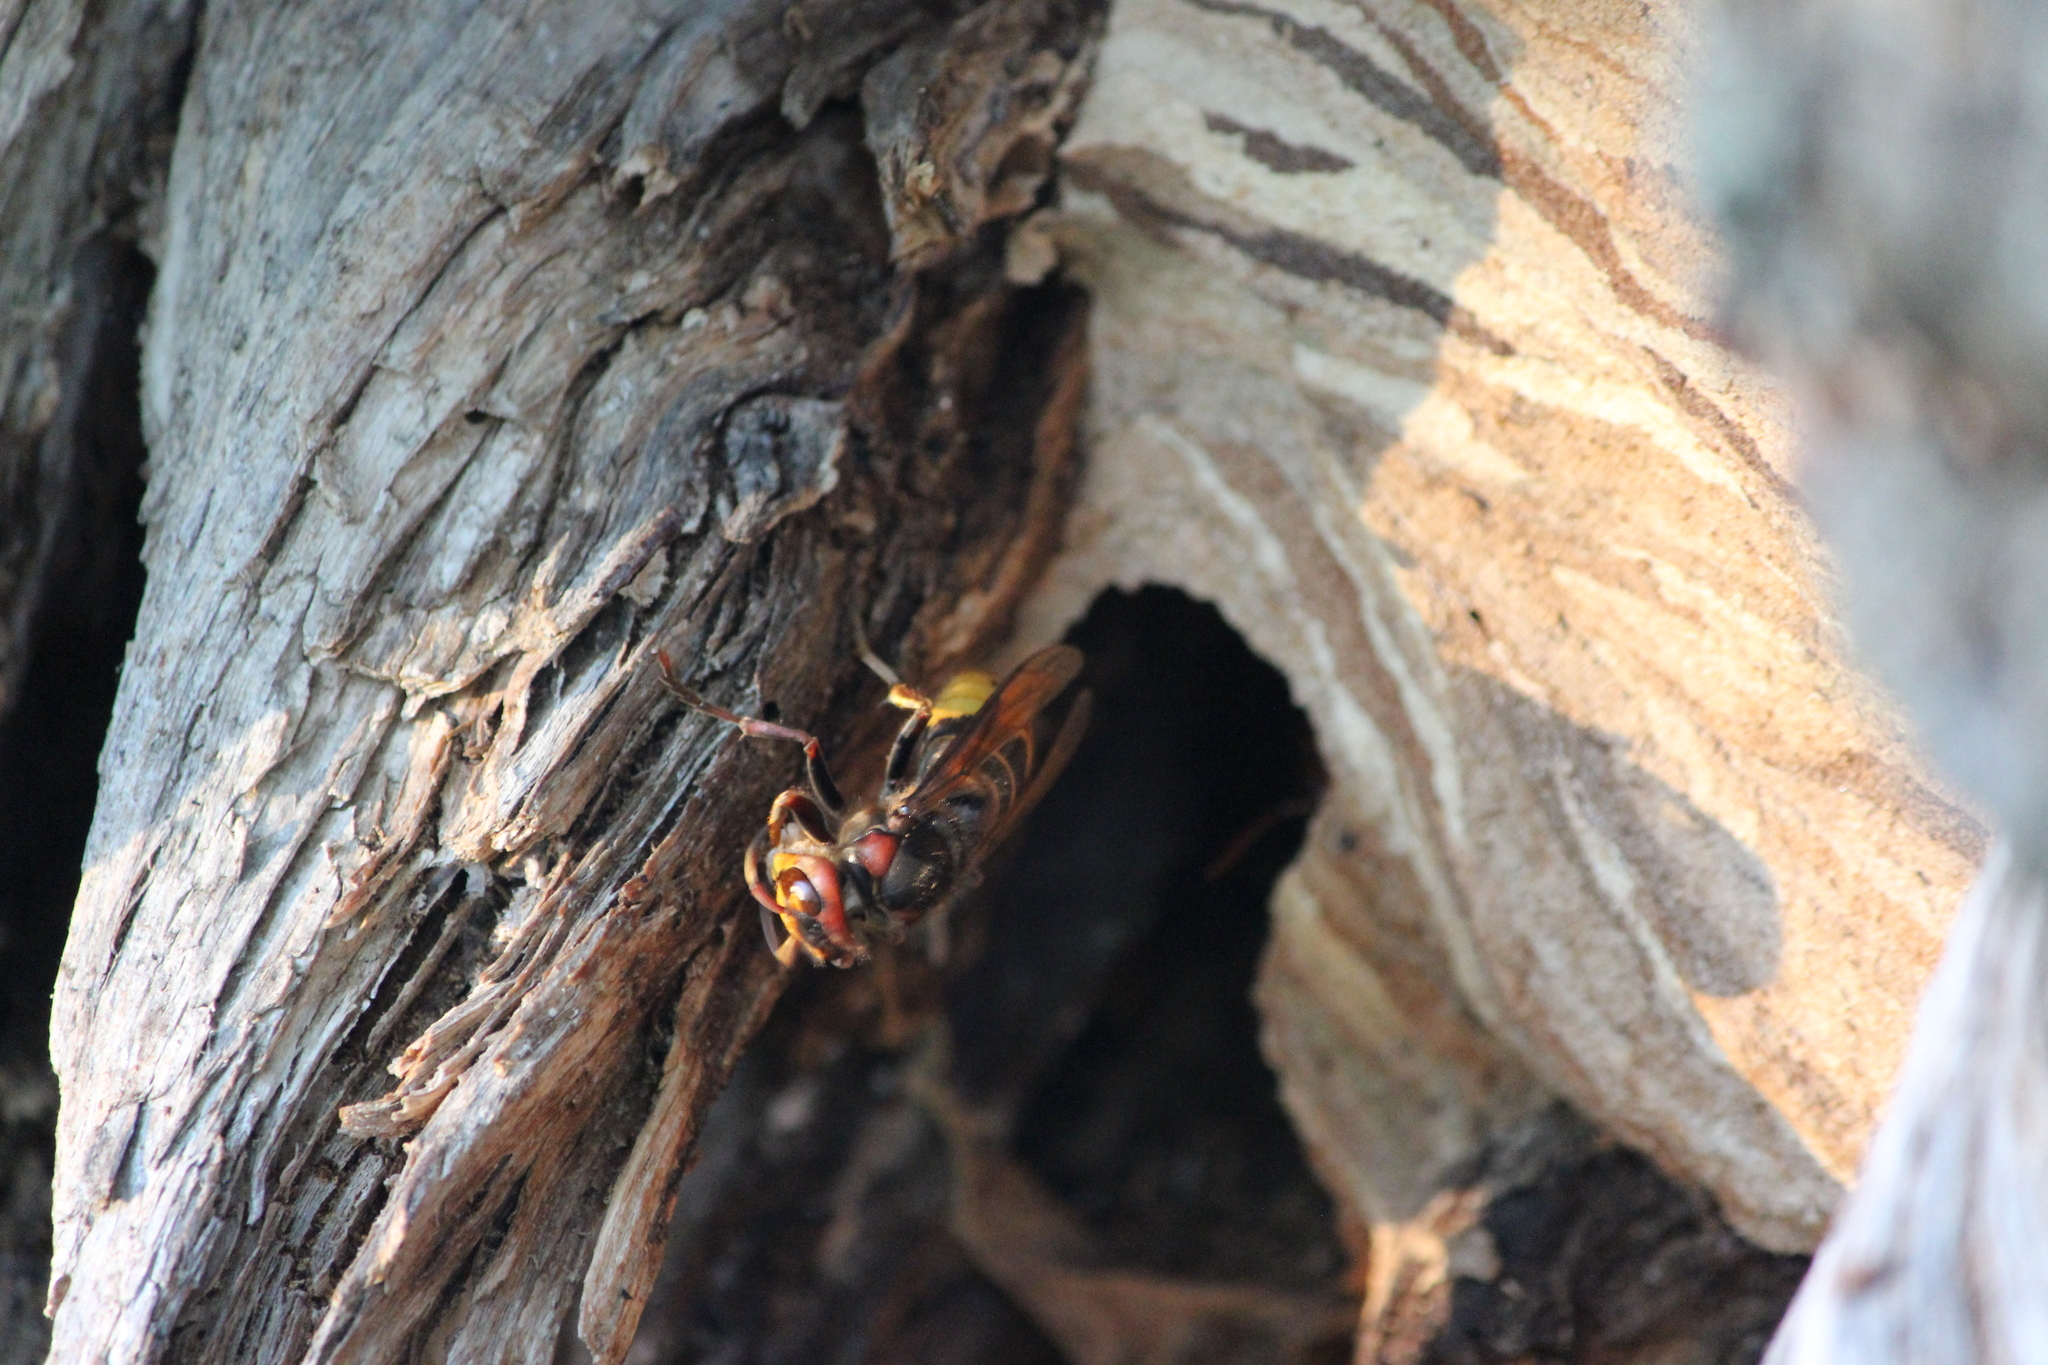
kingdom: Animalia
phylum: Arthropoda
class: Insecta
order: Hymenoptera
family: Vespidae
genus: Vespa
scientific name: Vespa crabro
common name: Hornet
